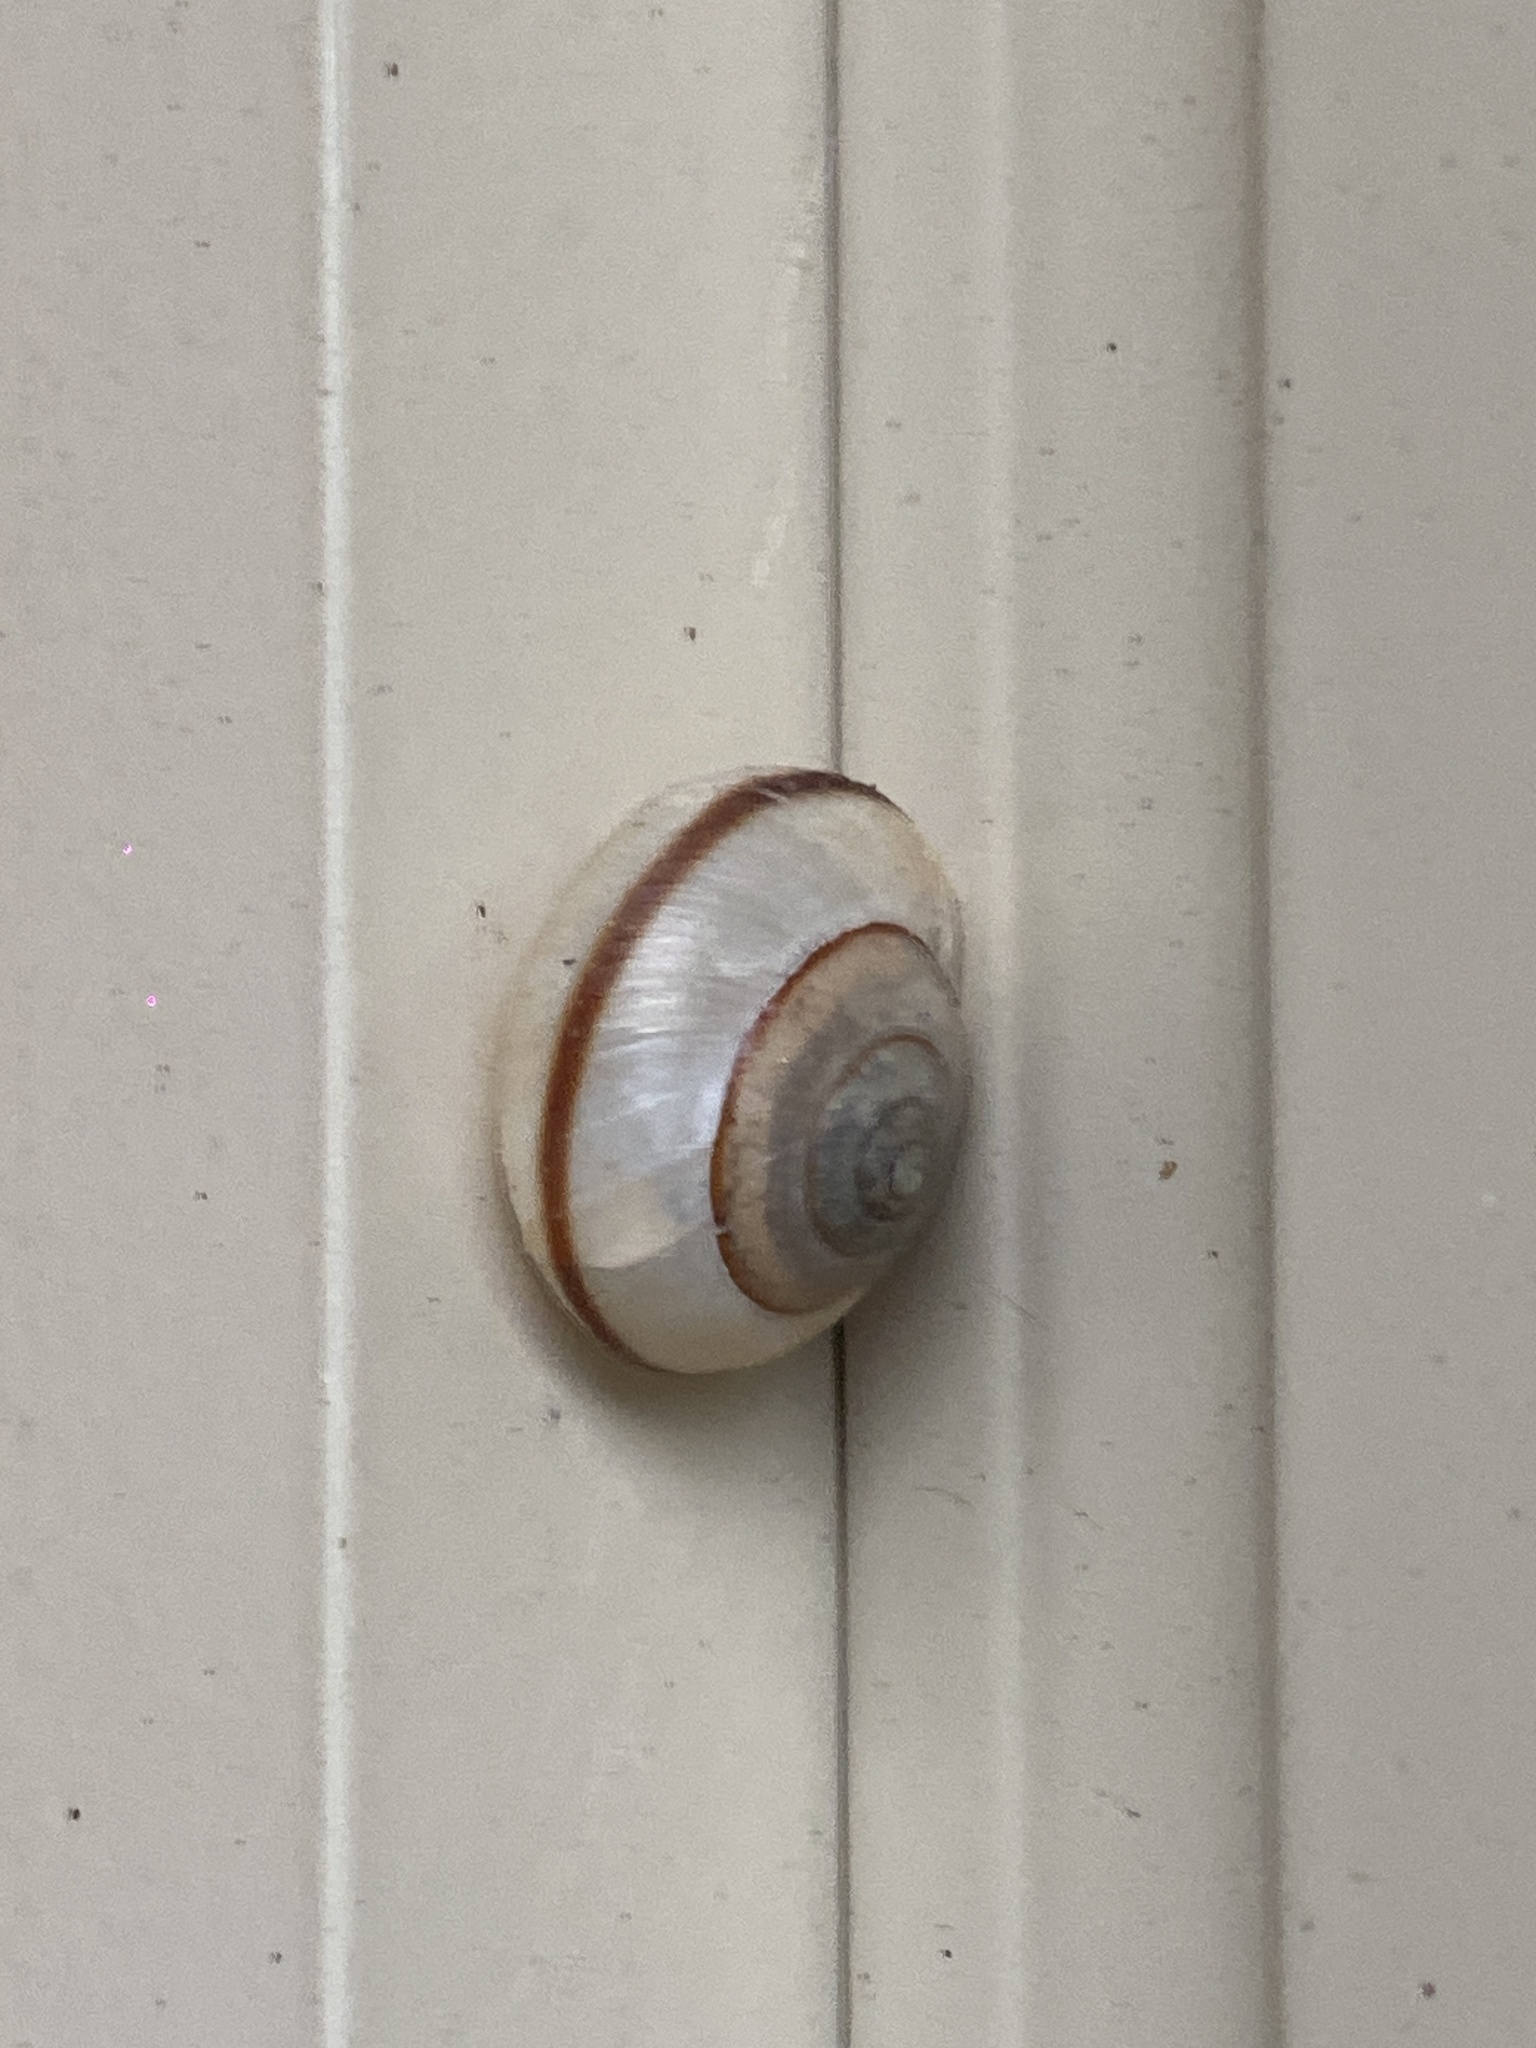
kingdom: Animalia
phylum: Mollusca
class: Gastropoda
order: Stylommatophora
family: Camaenidae
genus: Bradybaena
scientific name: Bradybaena similaris
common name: Asian trampsnail
